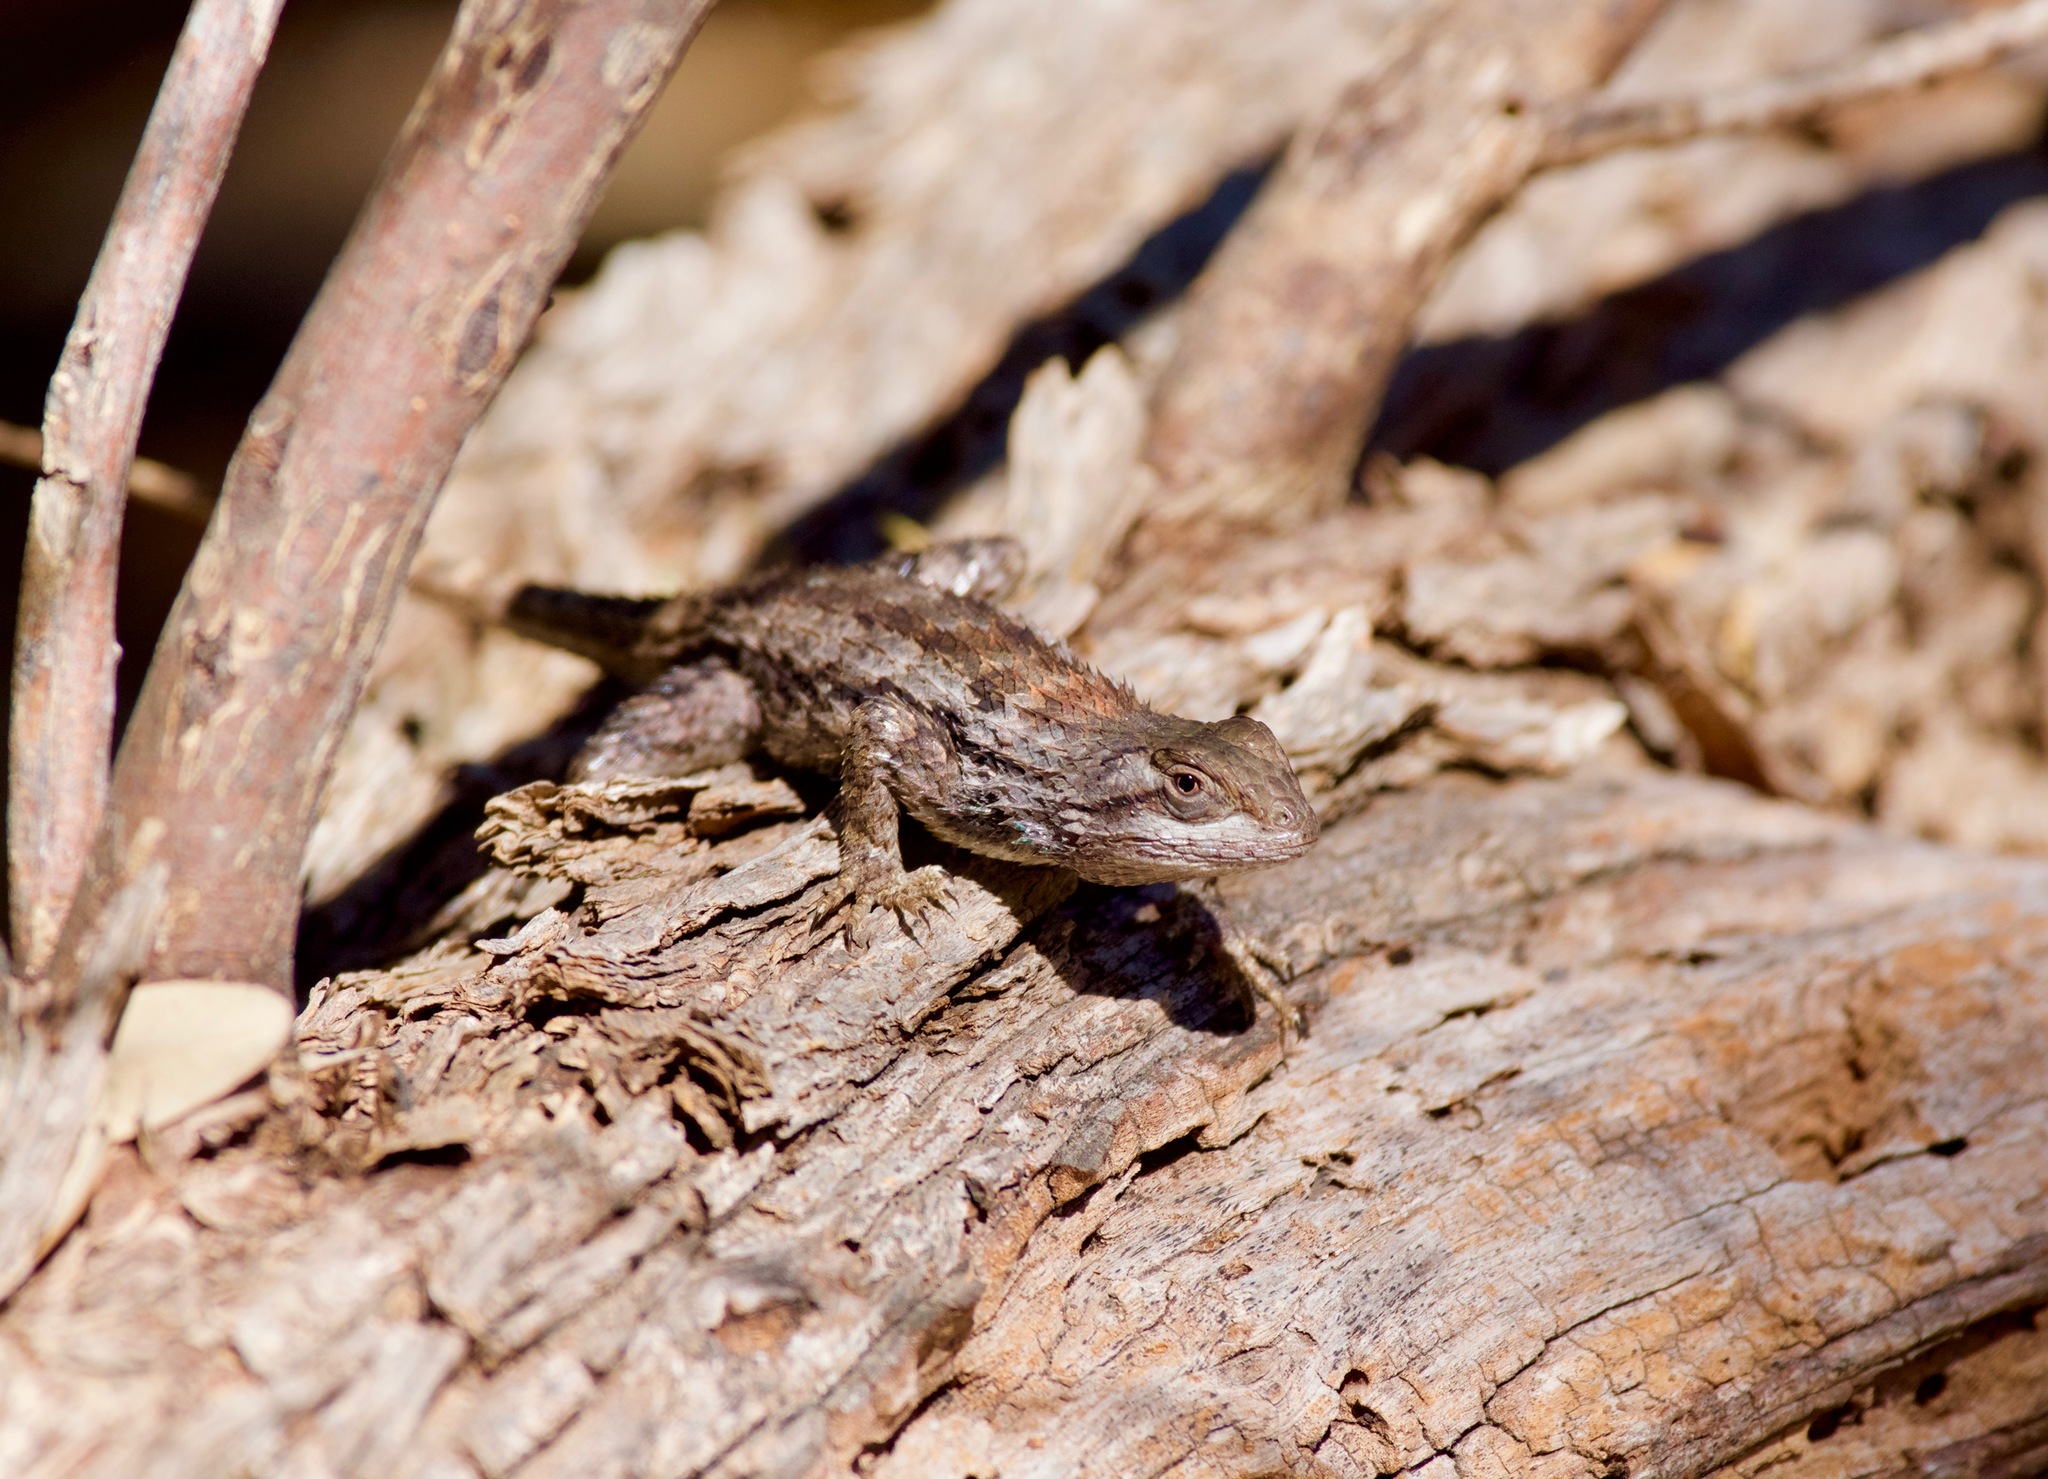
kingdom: Animalia
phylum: Chordata
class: Squamata
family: Phrynosomatidae
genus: Sceloporus
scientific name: Sceloporus olivaceus
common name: Texas spiny lizard
